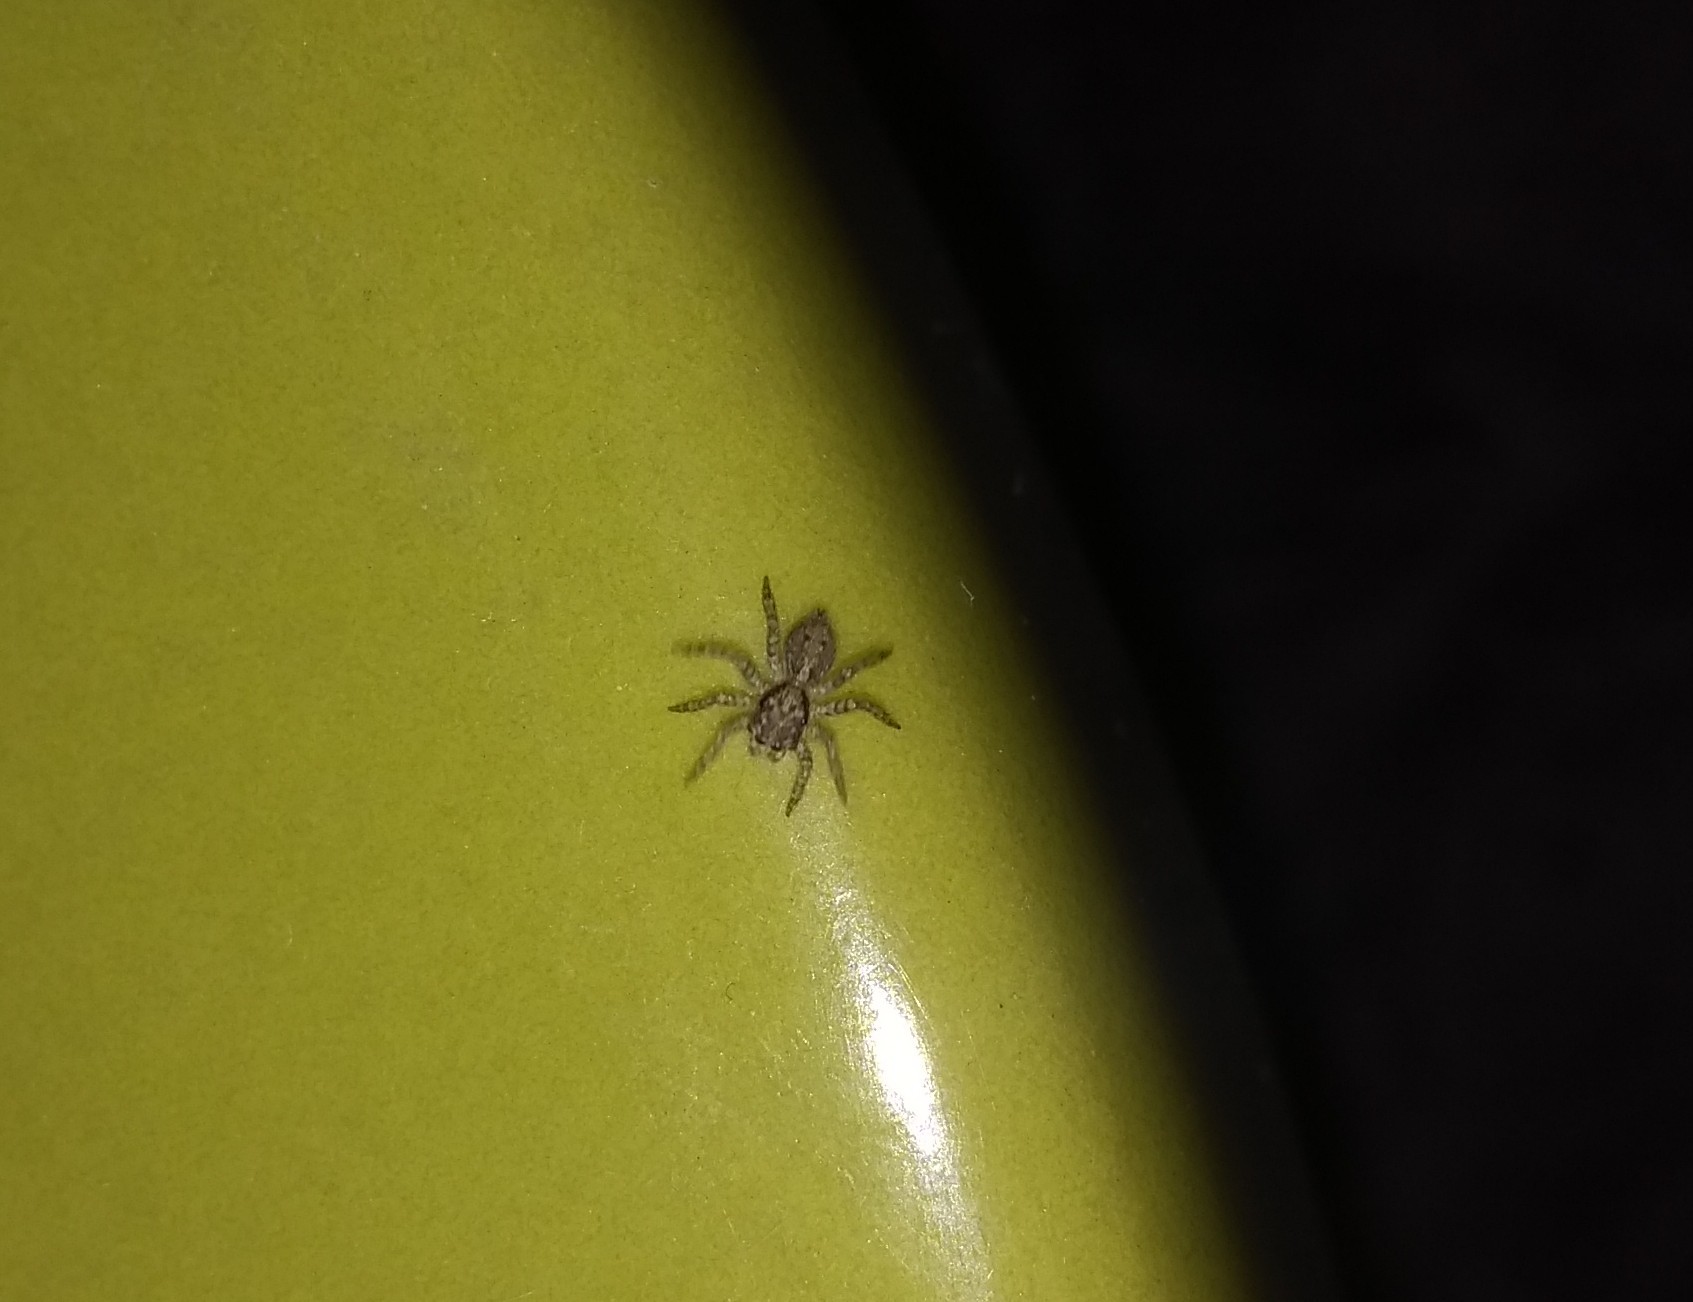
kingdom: Animalia
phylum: Arthropoda
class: Arachnida
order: Araneae
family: Salticidae
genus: Saitis
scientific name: Saitis variegatus
